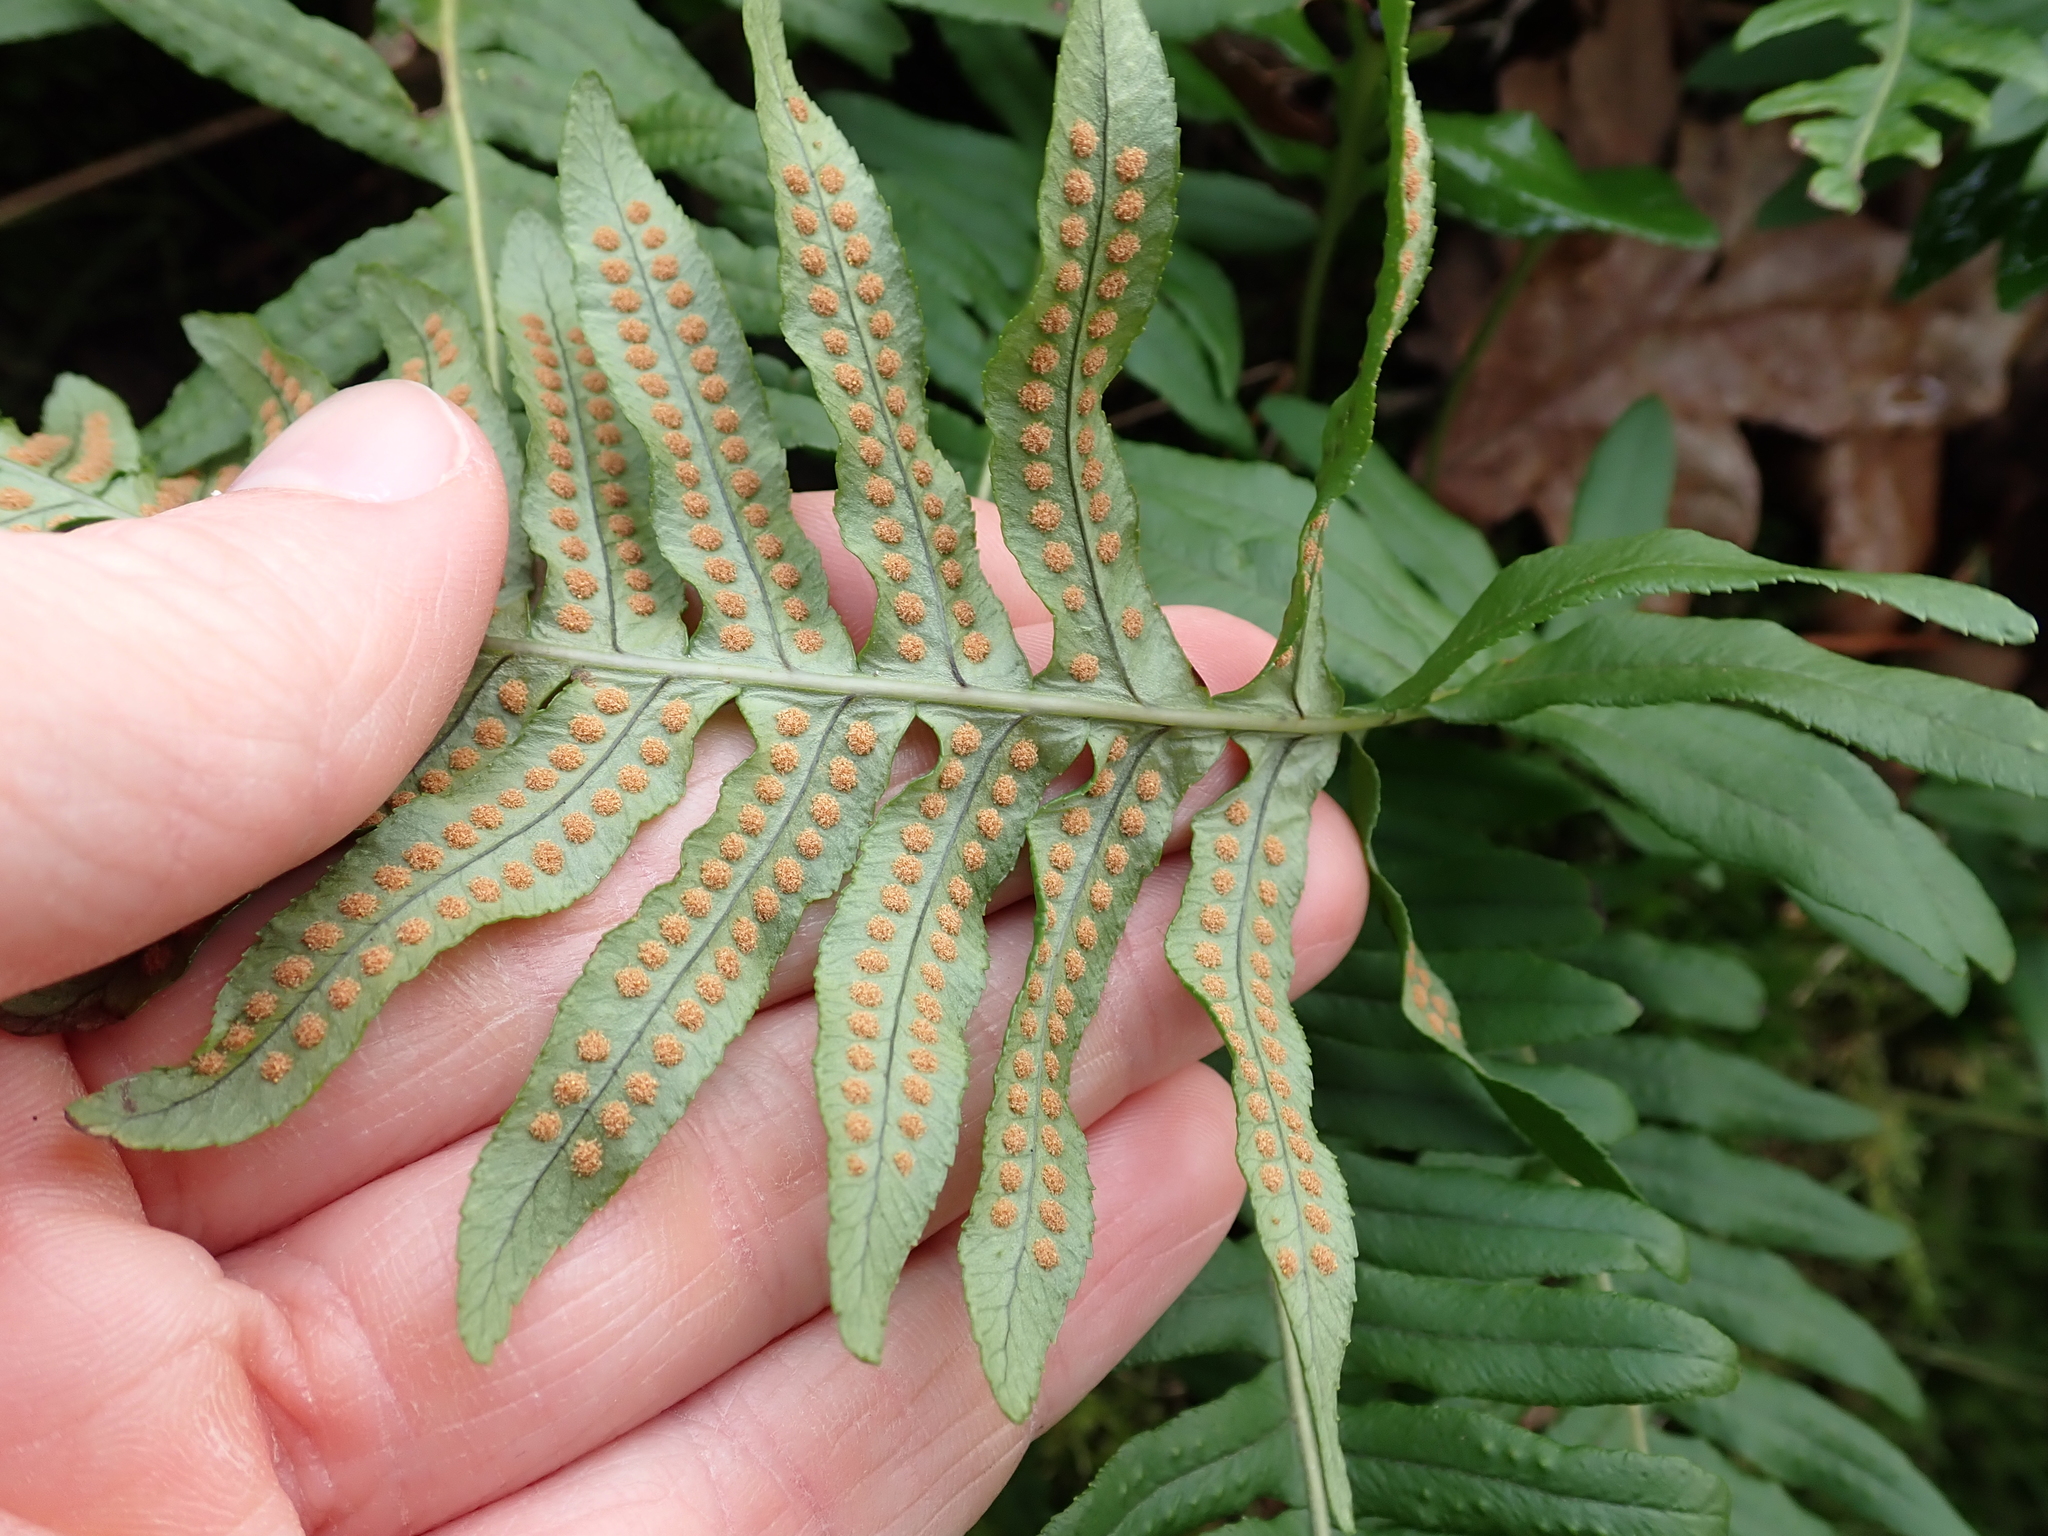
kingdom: Plantae
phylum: Tracheophyta
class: Polypodiopsida
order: Polypodiales
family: Polypodiaceae
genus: Polypodium
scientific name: Polypodium glycyrrhiza
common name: Licorice fern
